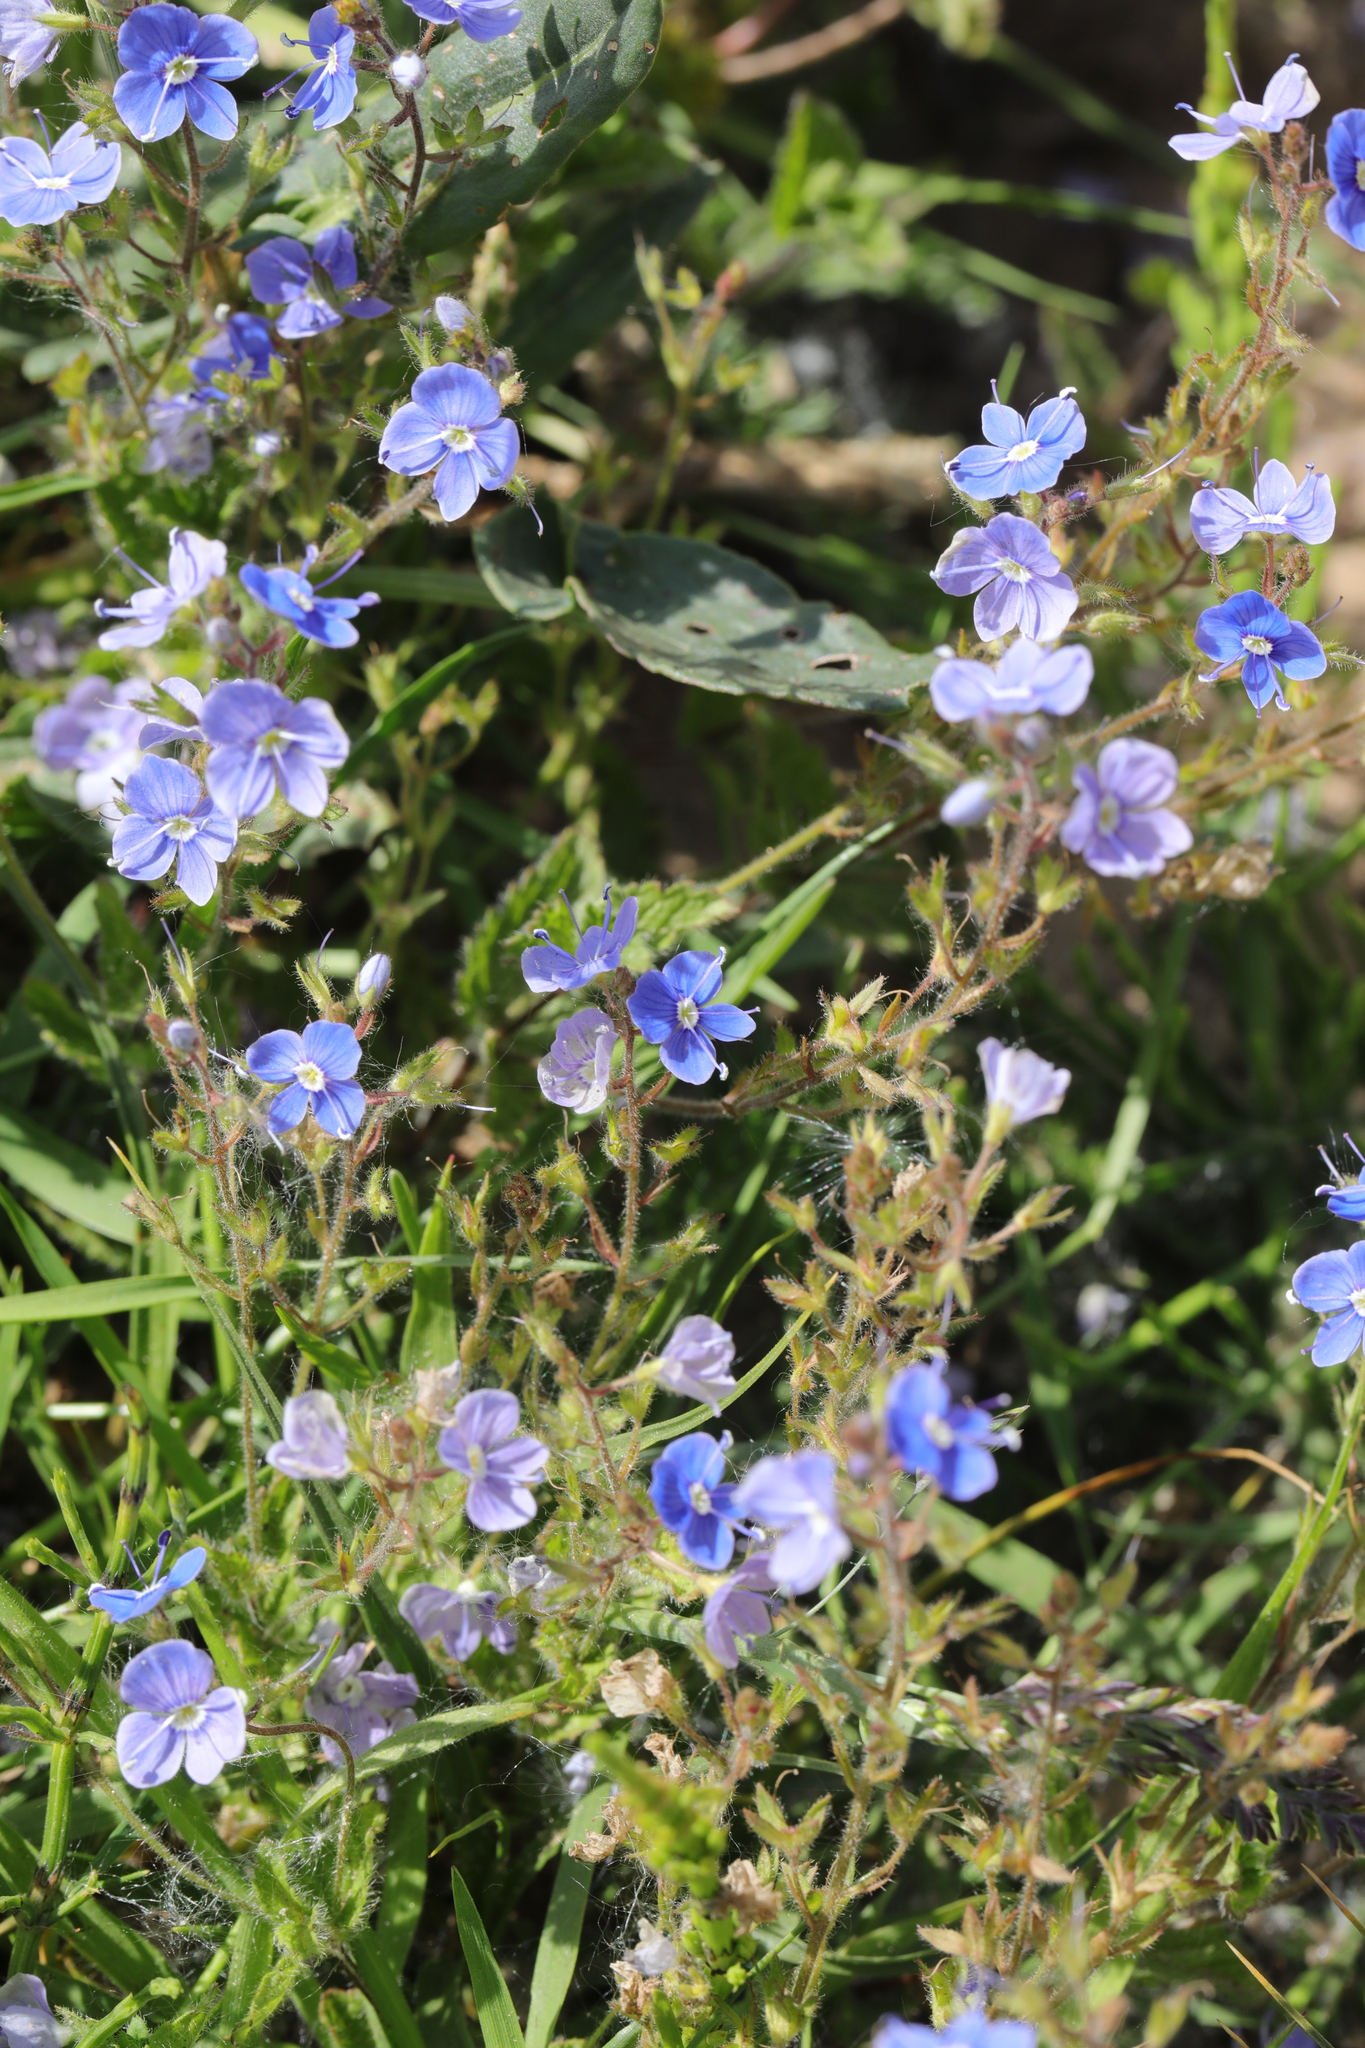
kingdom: Plantae
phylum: Tracheophyta
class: Magnoliopsida
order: Lamiales
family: Plantaginaceae
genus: Veronica
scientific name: Veronica chamaedrys
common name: Germander speedwell
